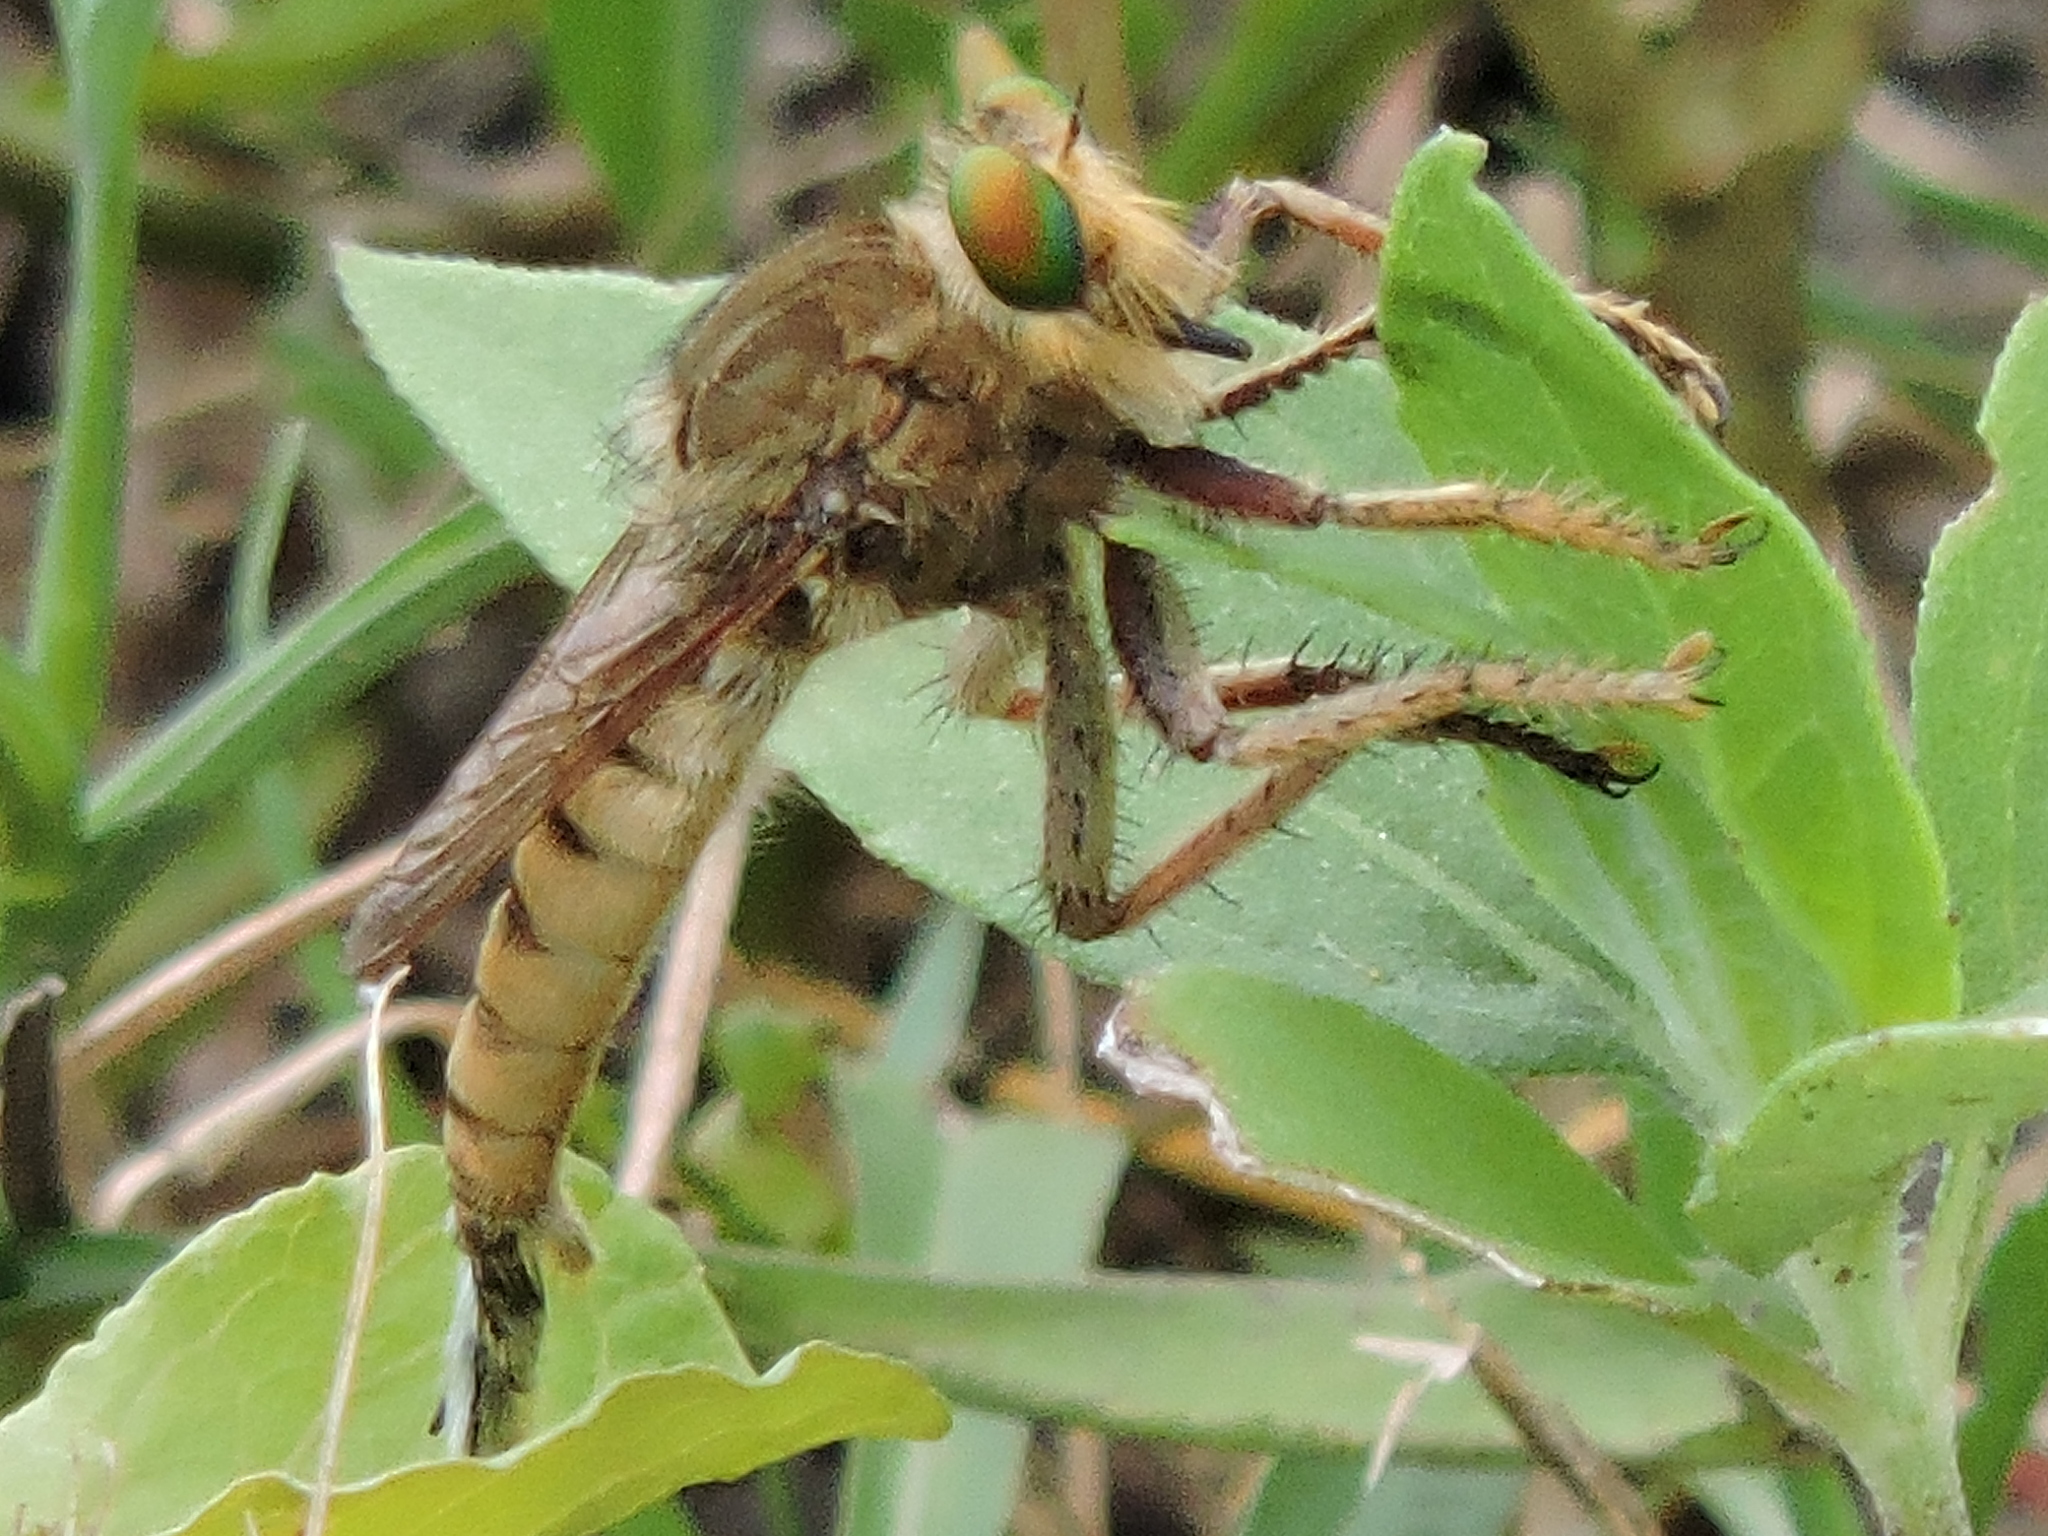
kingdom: Animalia
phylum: Arthropoda
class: Insecta
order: Diptera
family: Asilidae
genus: Promachus
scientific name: Promachus fitchii
